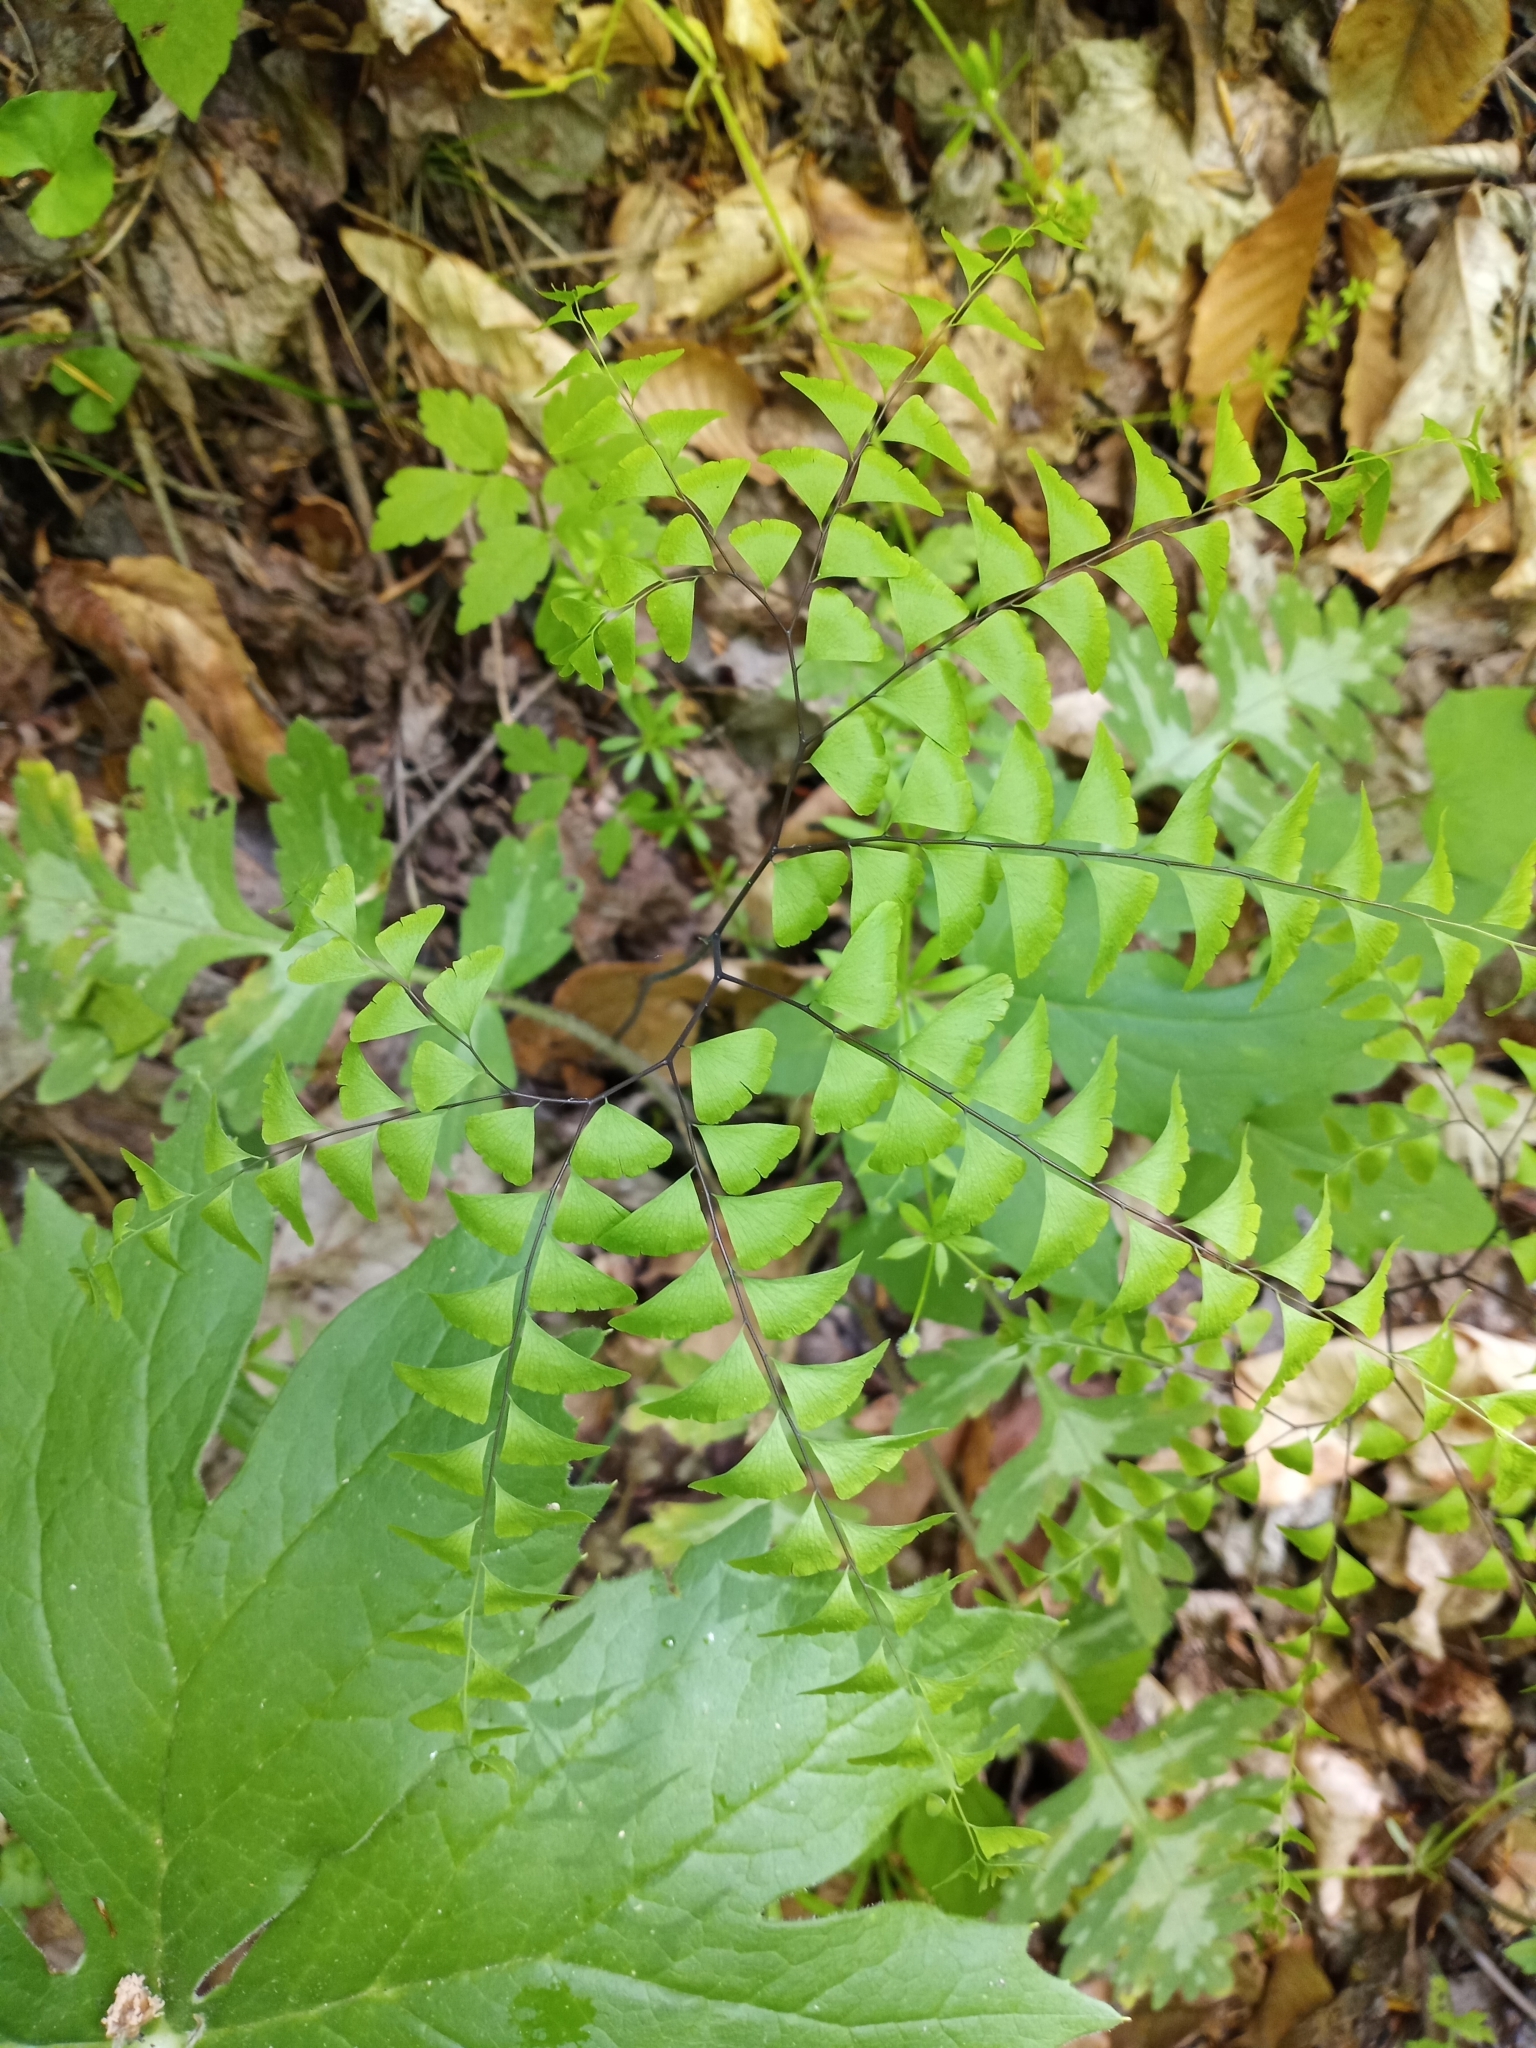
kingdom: Plantae
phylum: Tracheophyta
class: Polypodiopsida
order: Polypodiales
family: Pteridaceae
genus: Adiantum
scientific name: Adiantum pedatum
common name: Five-finger fern
